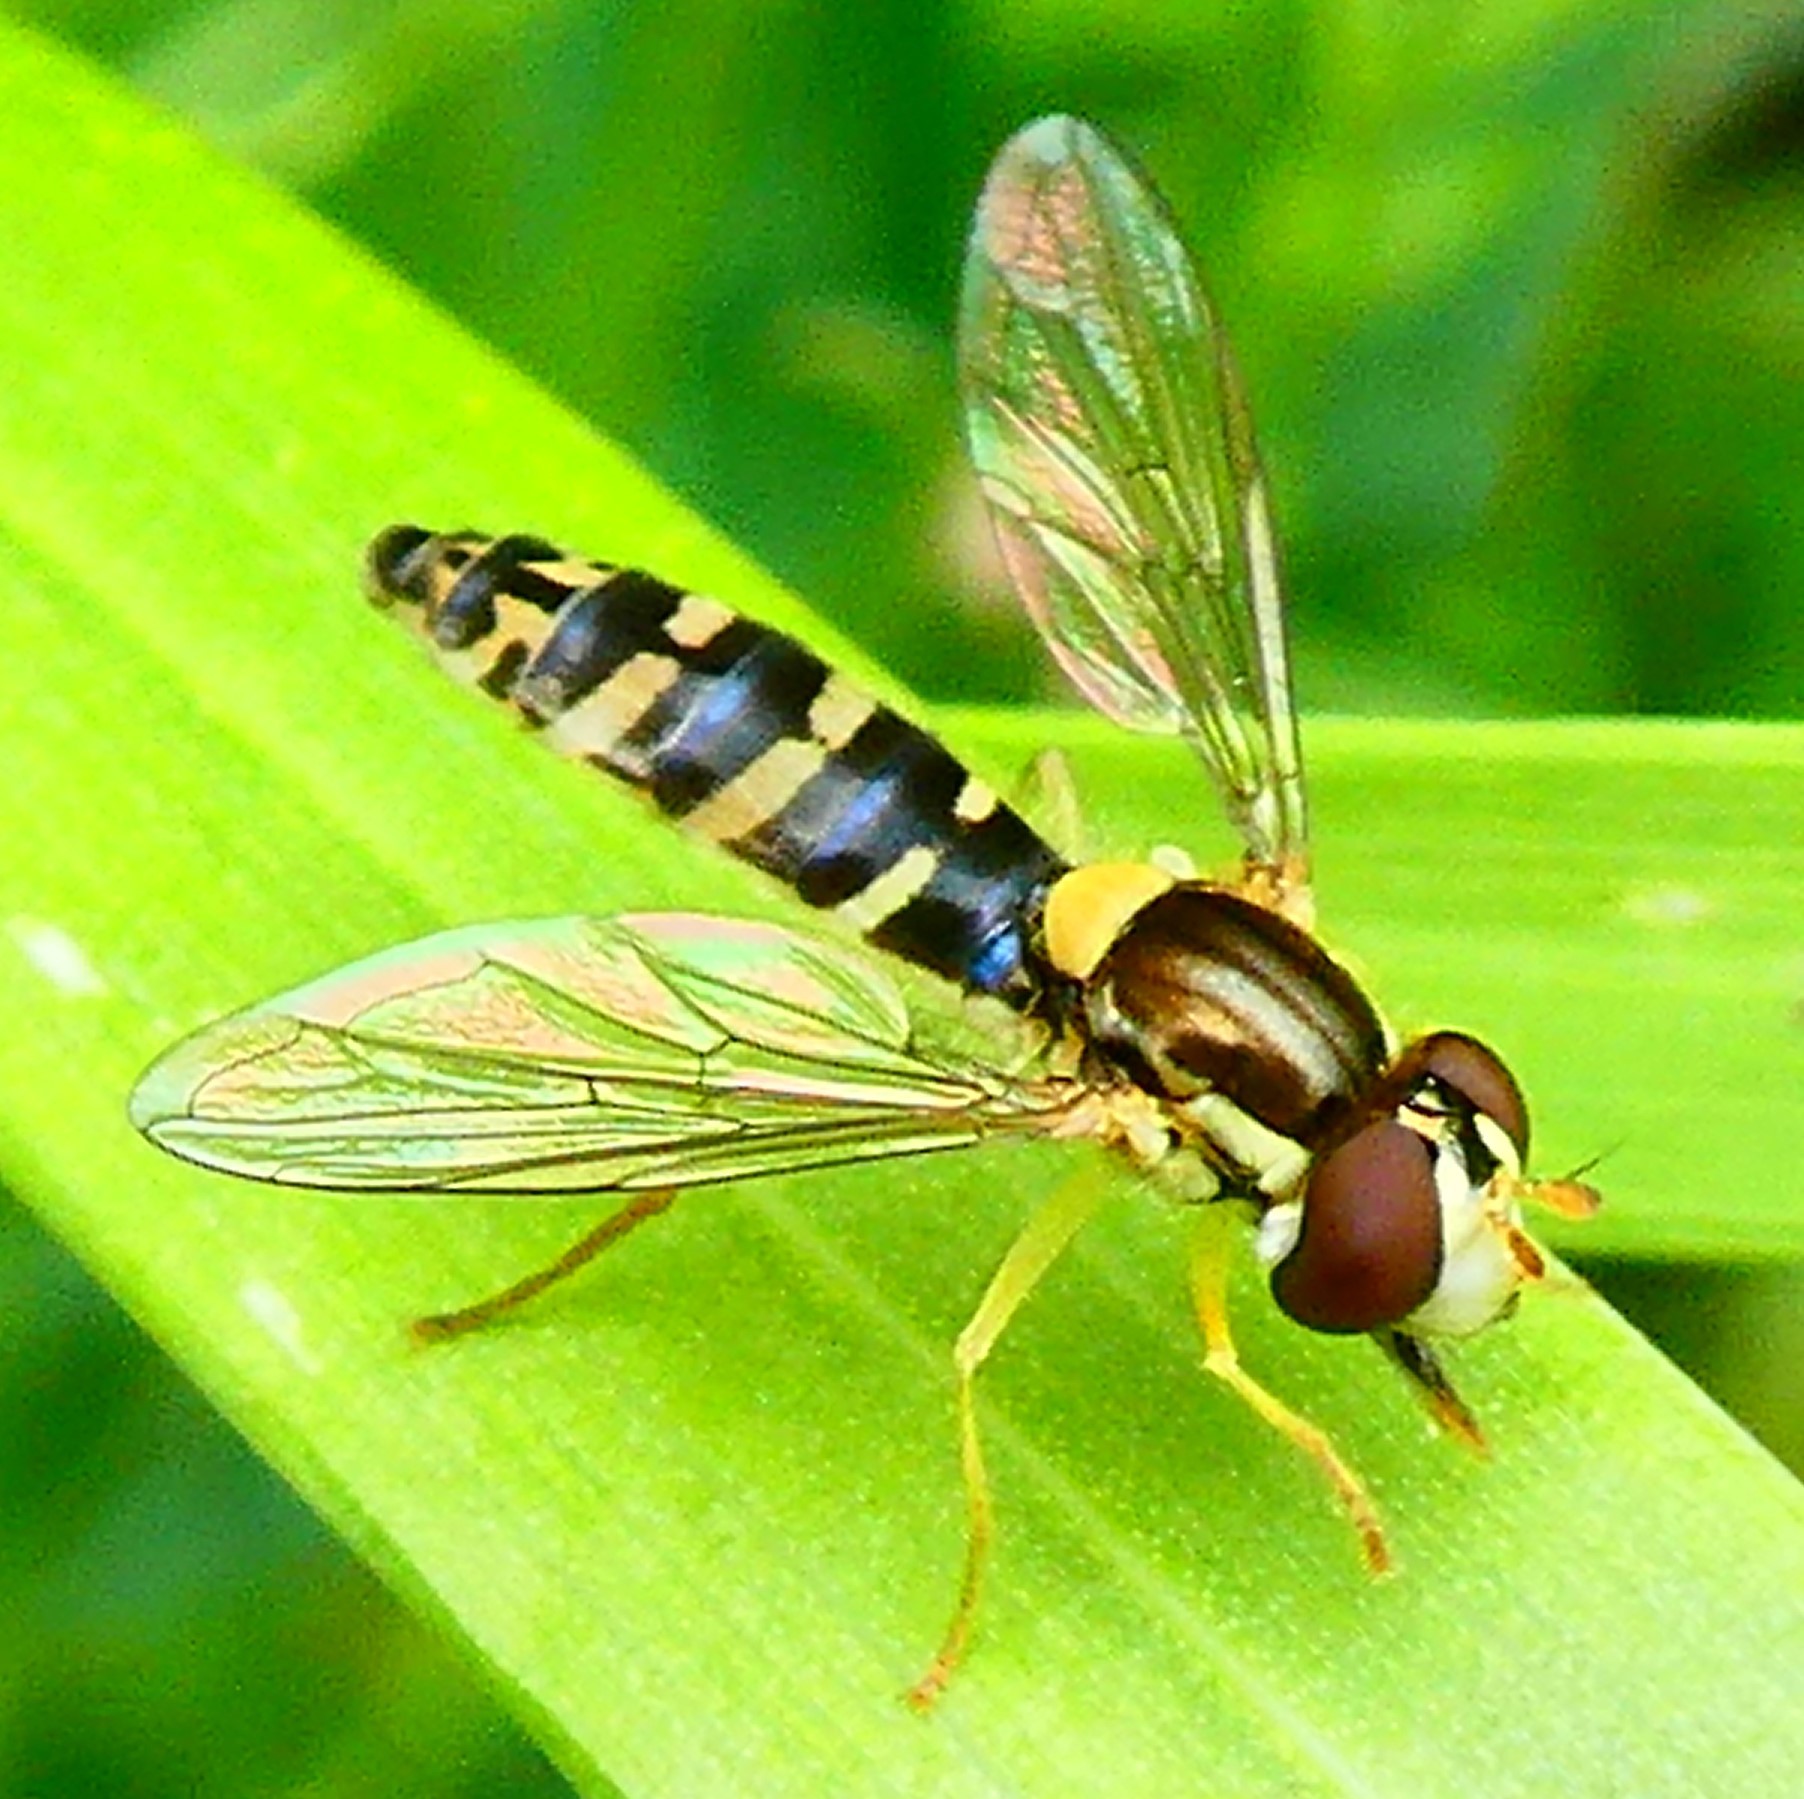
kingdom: Animalia
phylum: Arthropoda
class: Insecta
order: Diptera
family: Syrphidae
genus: Sphaerophoria
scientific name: Sphaerophoria
